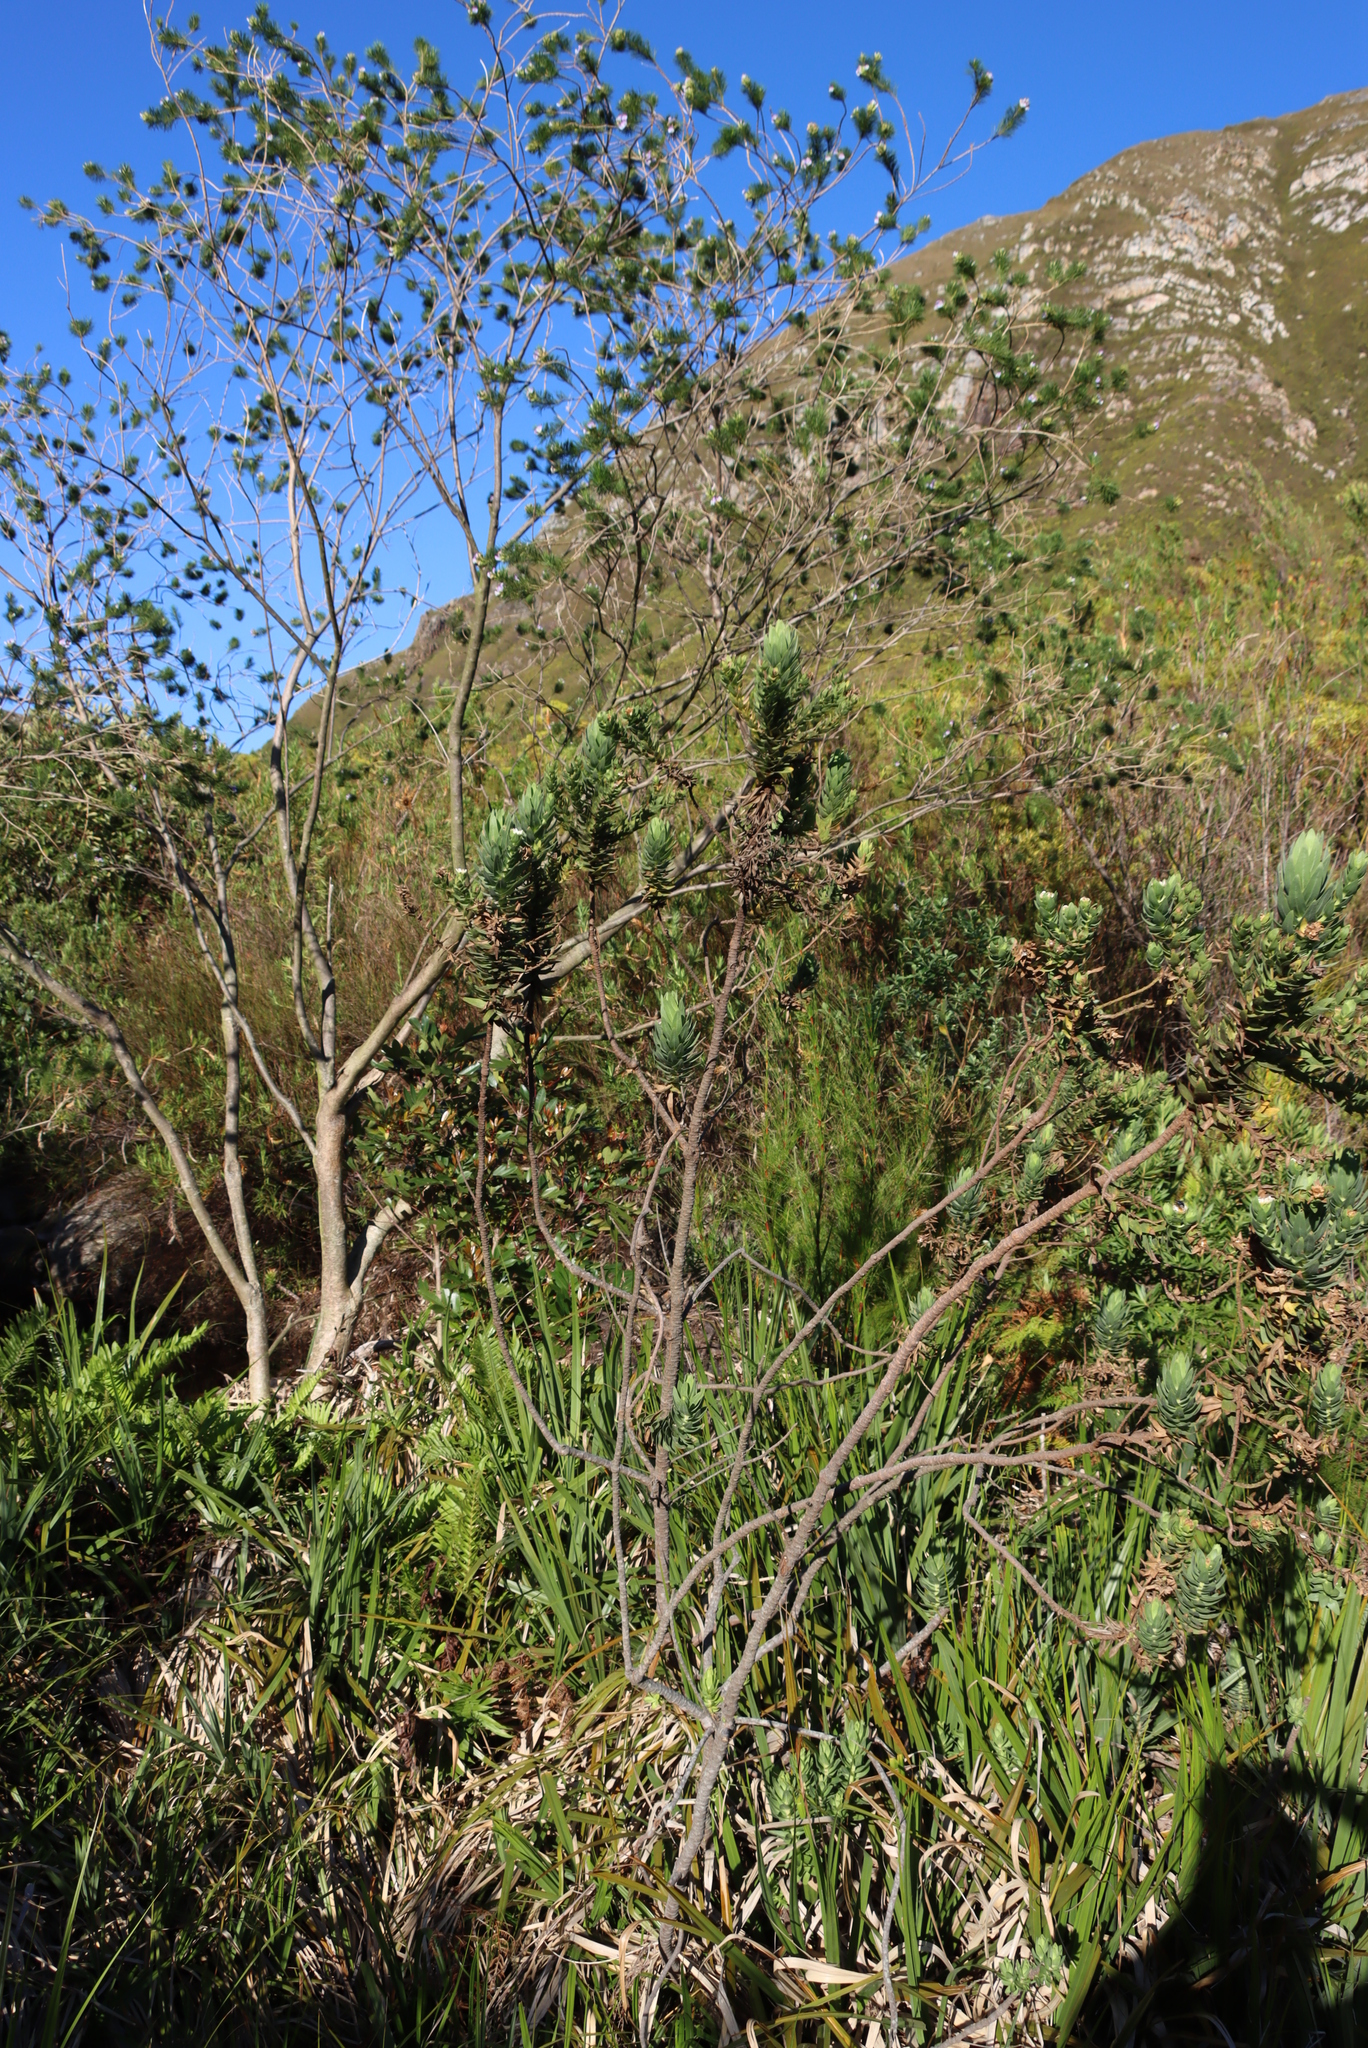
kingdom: Plantae
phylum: Tracheophyta
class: Magnoliopsida
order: Fabales
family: Fabaceae
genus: Psoralea
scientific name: Psoralea pinnata
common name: African scurfpea
